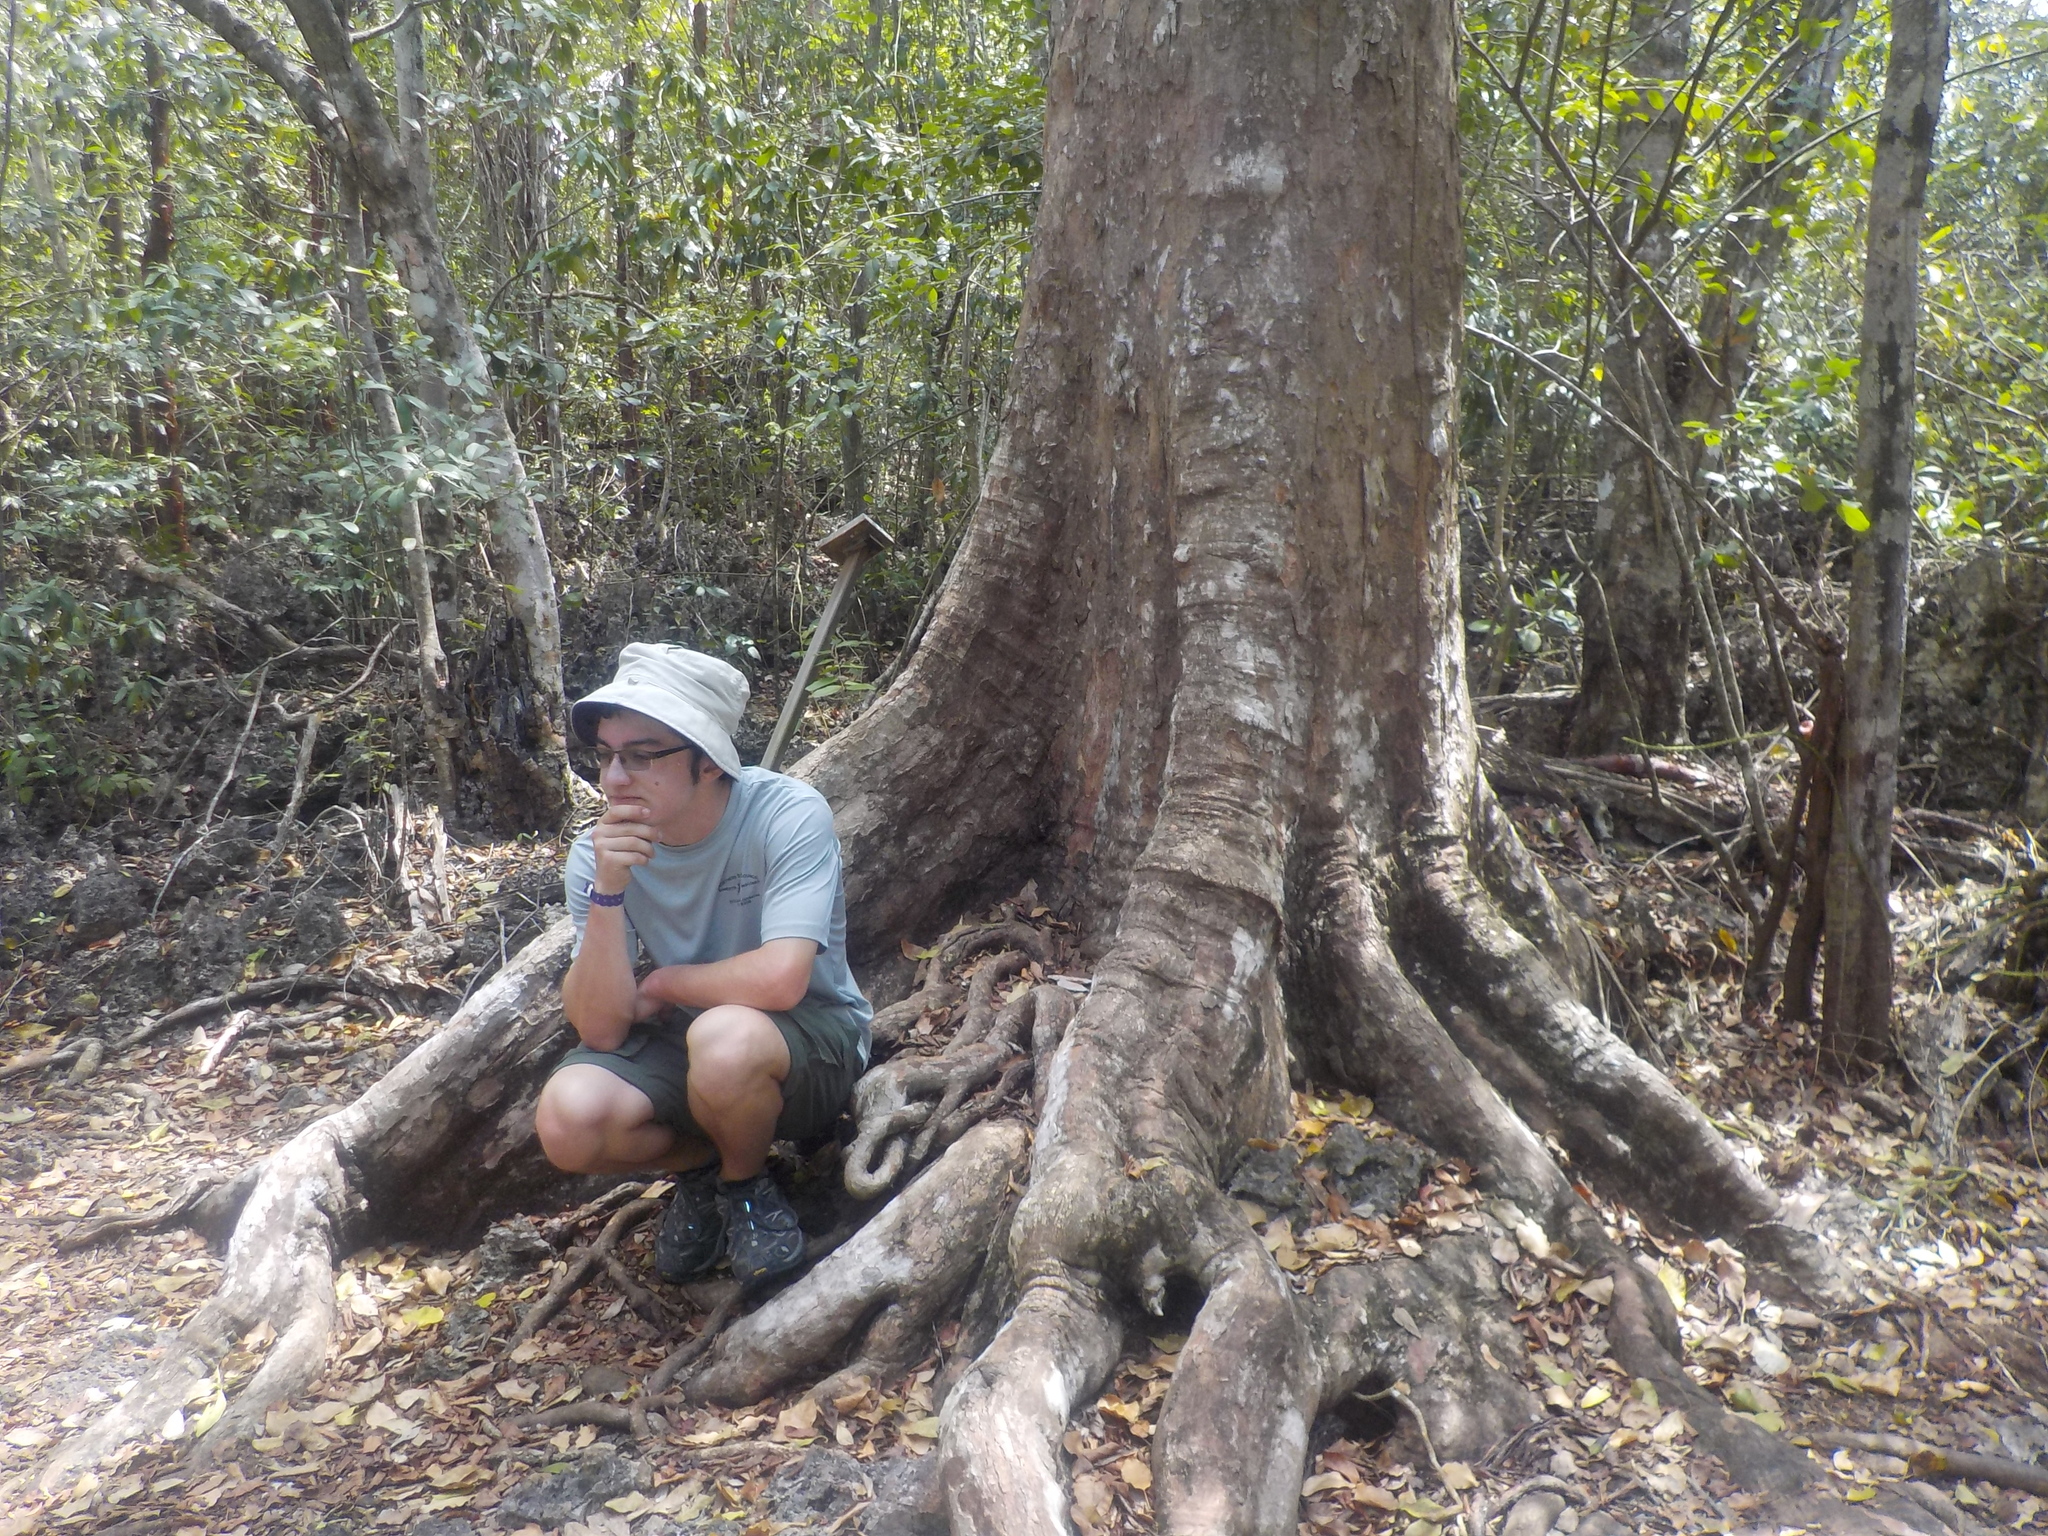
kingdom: Plantae
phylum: Tracheophyta
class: Magnoliopsida
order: Ericales
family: Sapotaceae
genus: Sideroxylon
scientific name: Sideroxylon foetidissimum
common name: Barbados-mastic
